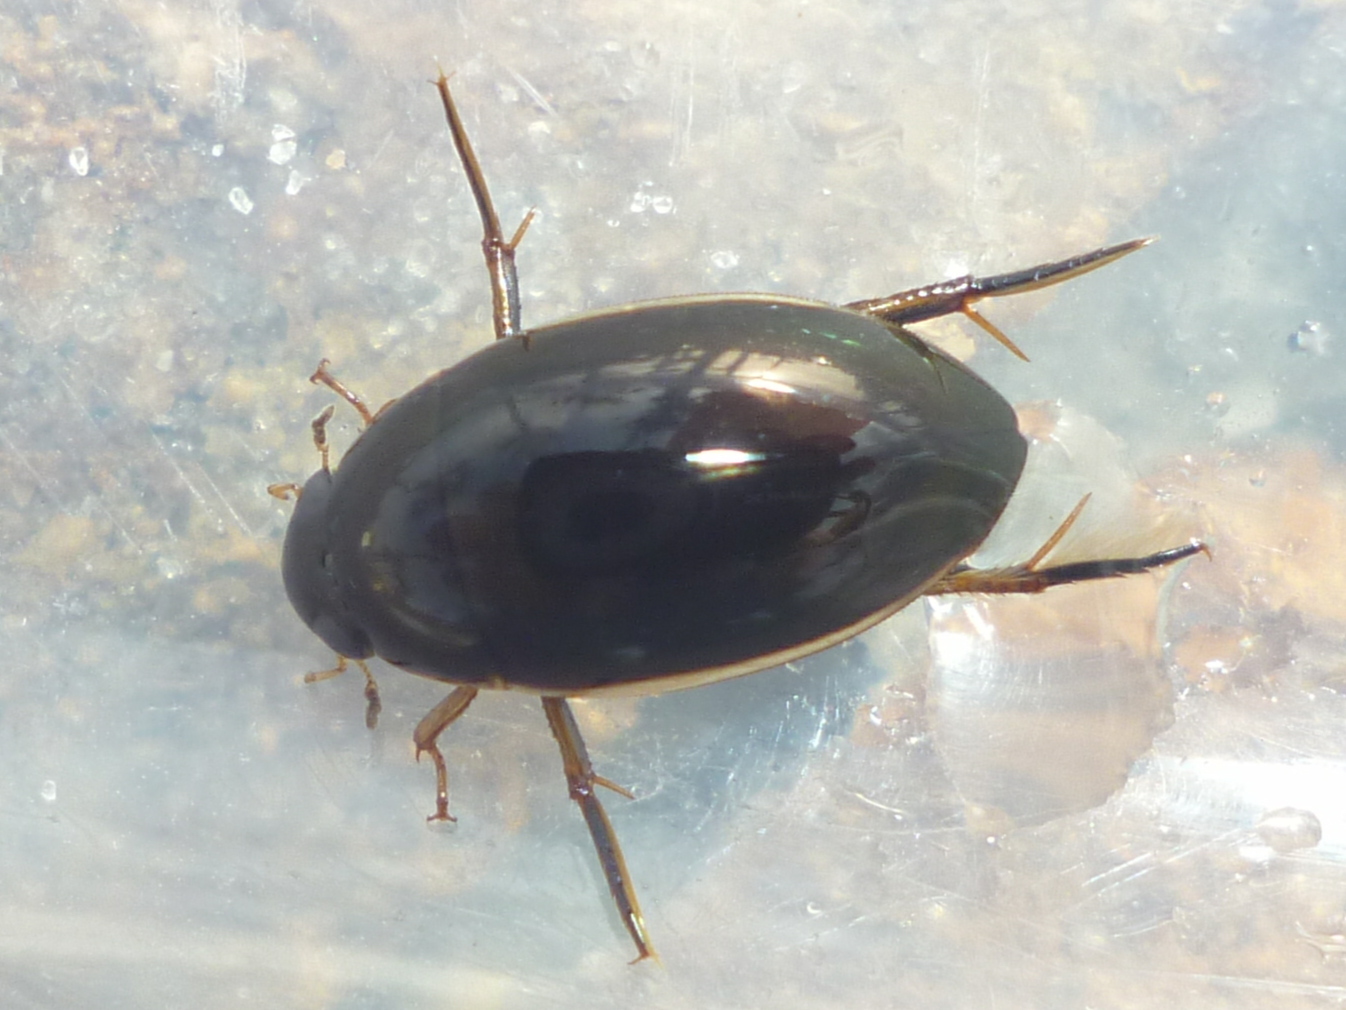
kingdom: Animalia
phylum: Arthropoda
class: Insecta
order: Coleoptera
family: Hydrophilidae
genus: Tropisternus
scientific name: Tropisternus lateralis
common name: Lateral-banded water scavenger beetle
